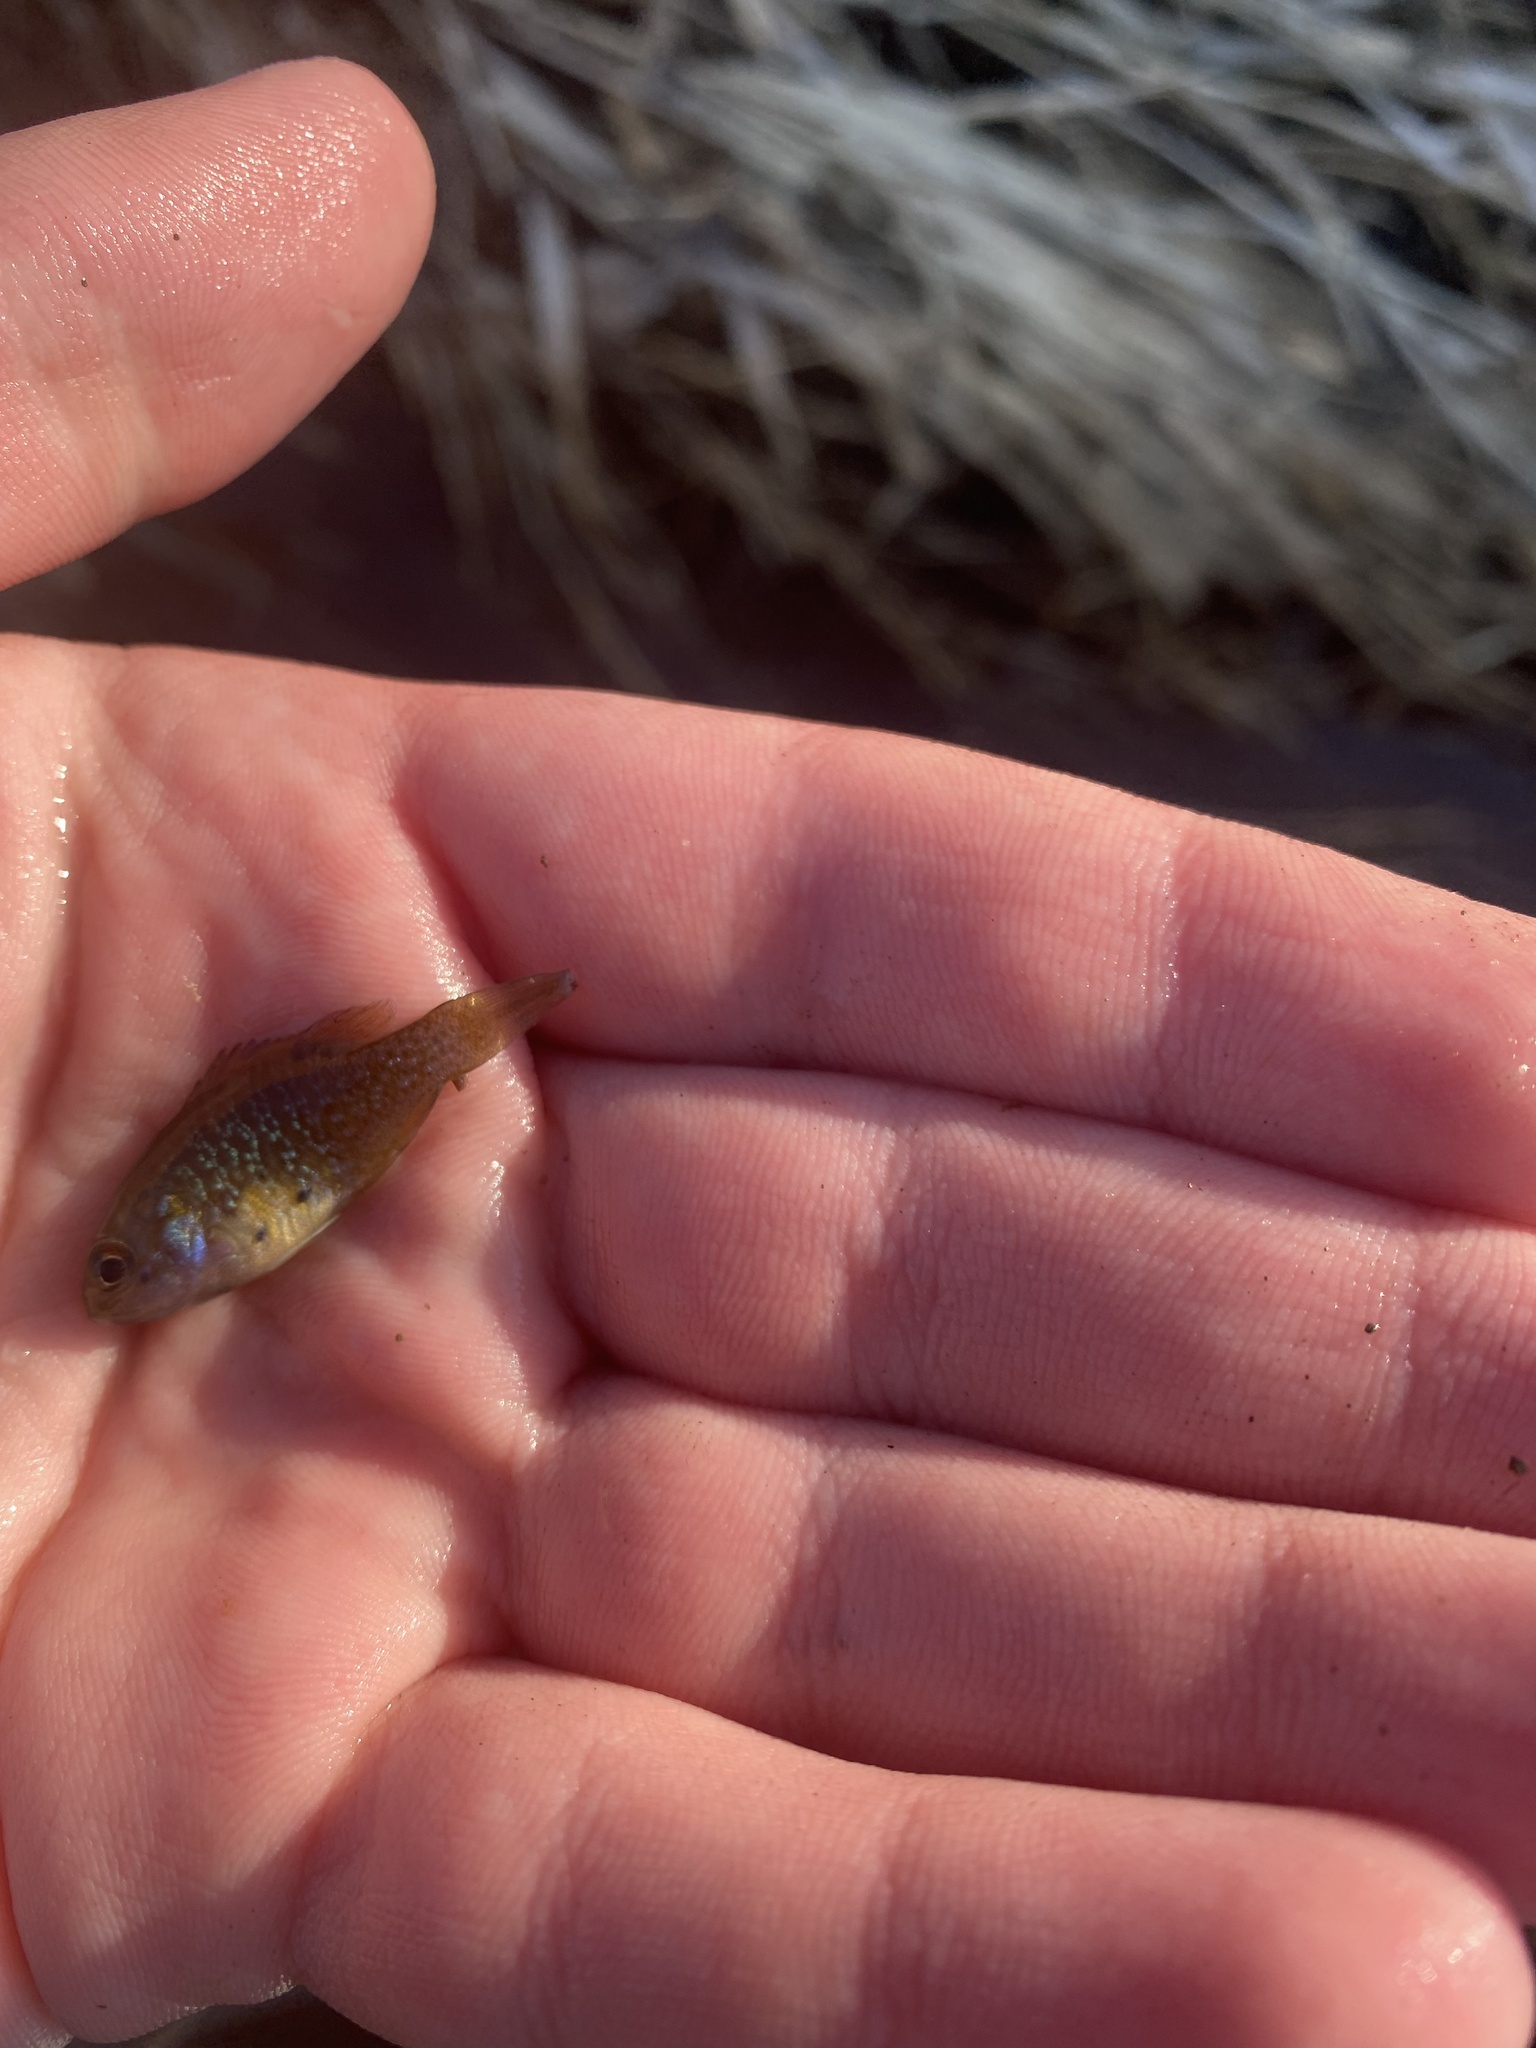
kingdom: Animalia
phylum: Chordata
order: Perciformes
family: Centrarchidae
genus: Lepomis
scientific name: Lepomis cyanellus
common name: Green sunfish
